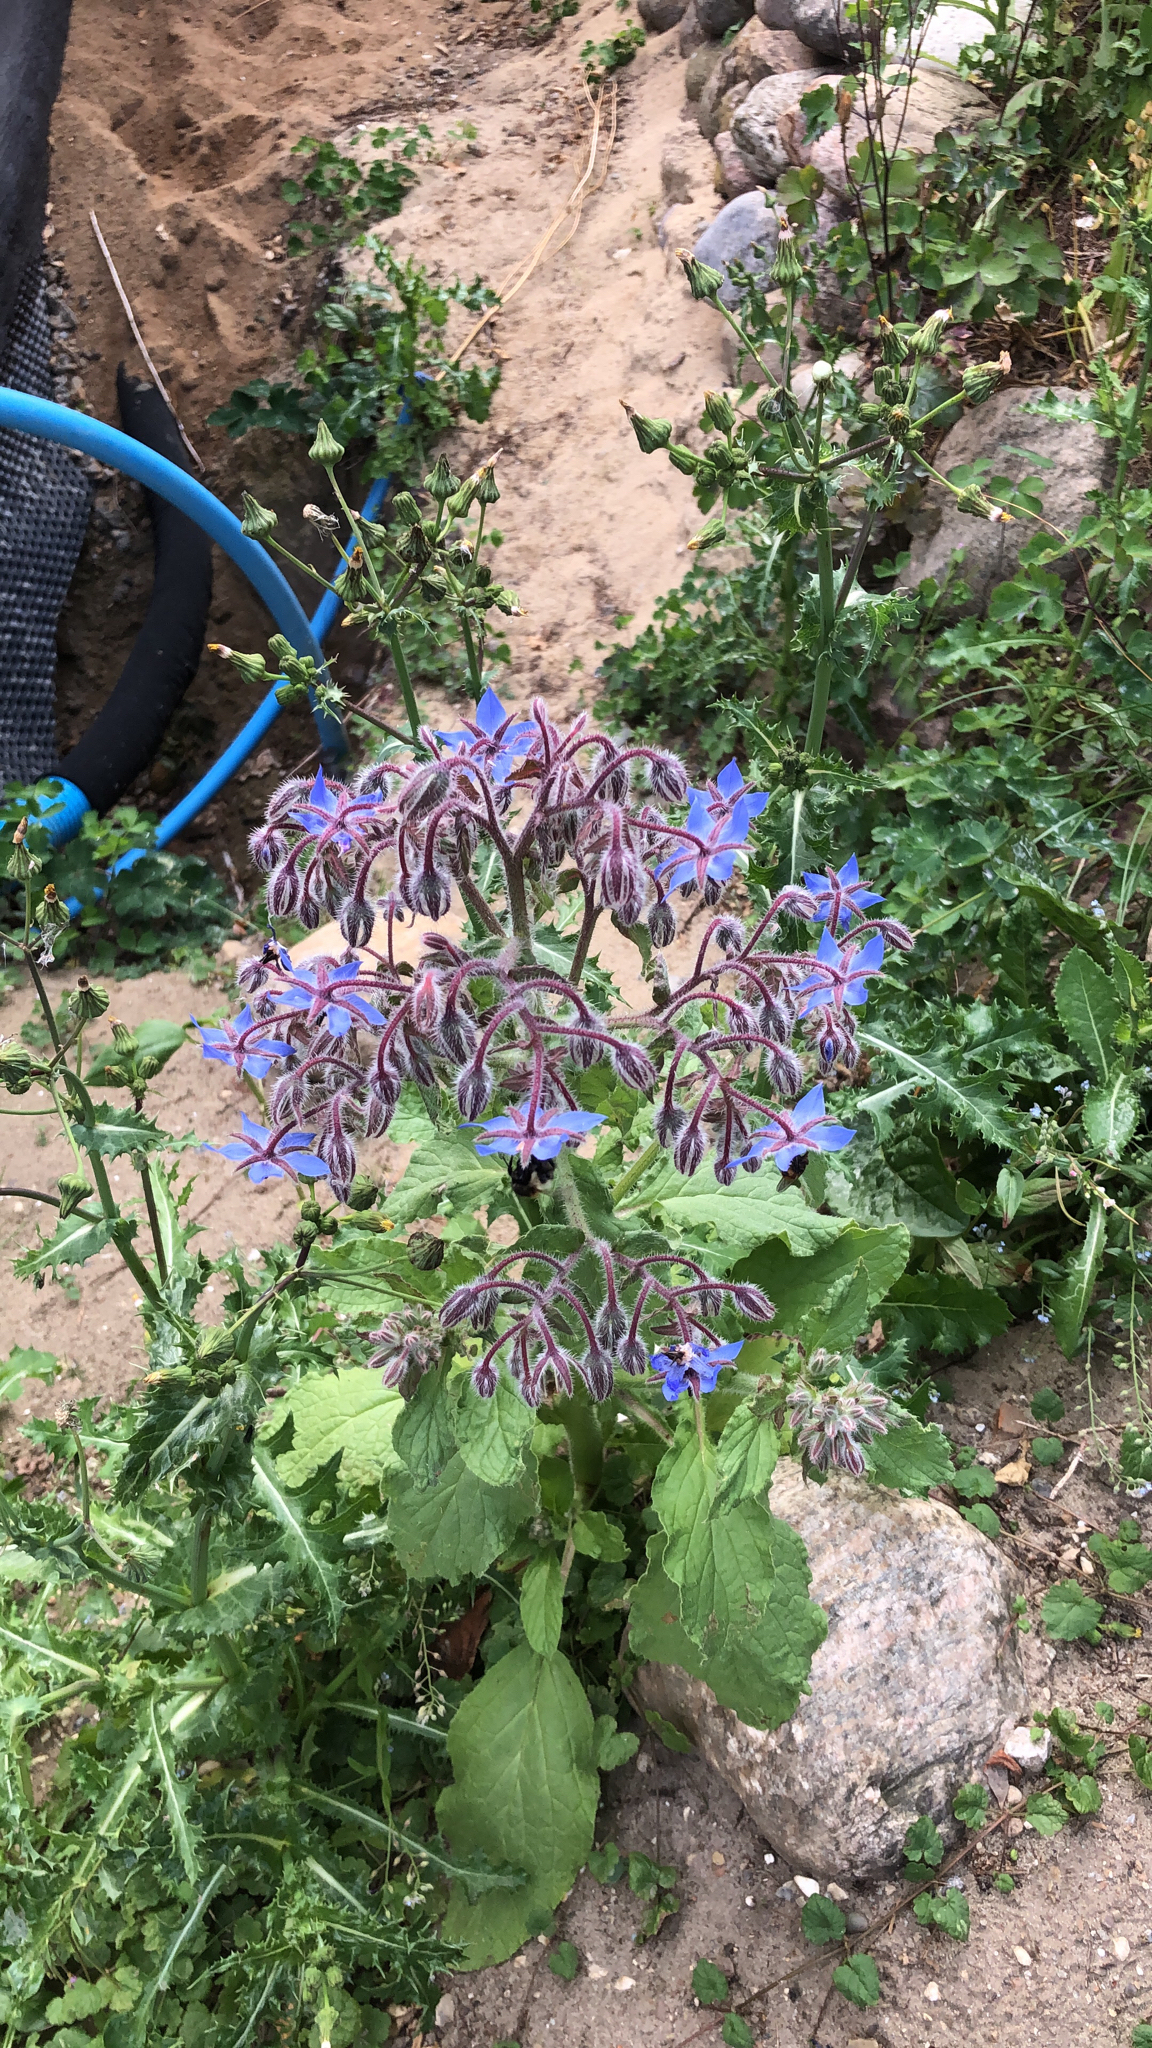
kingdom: Plantae
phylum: Tracheophyta
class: Magnoliopsida
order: Boraginales
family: Boraginaceae
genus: Borago
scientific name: Borago officinalis
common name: Borage
